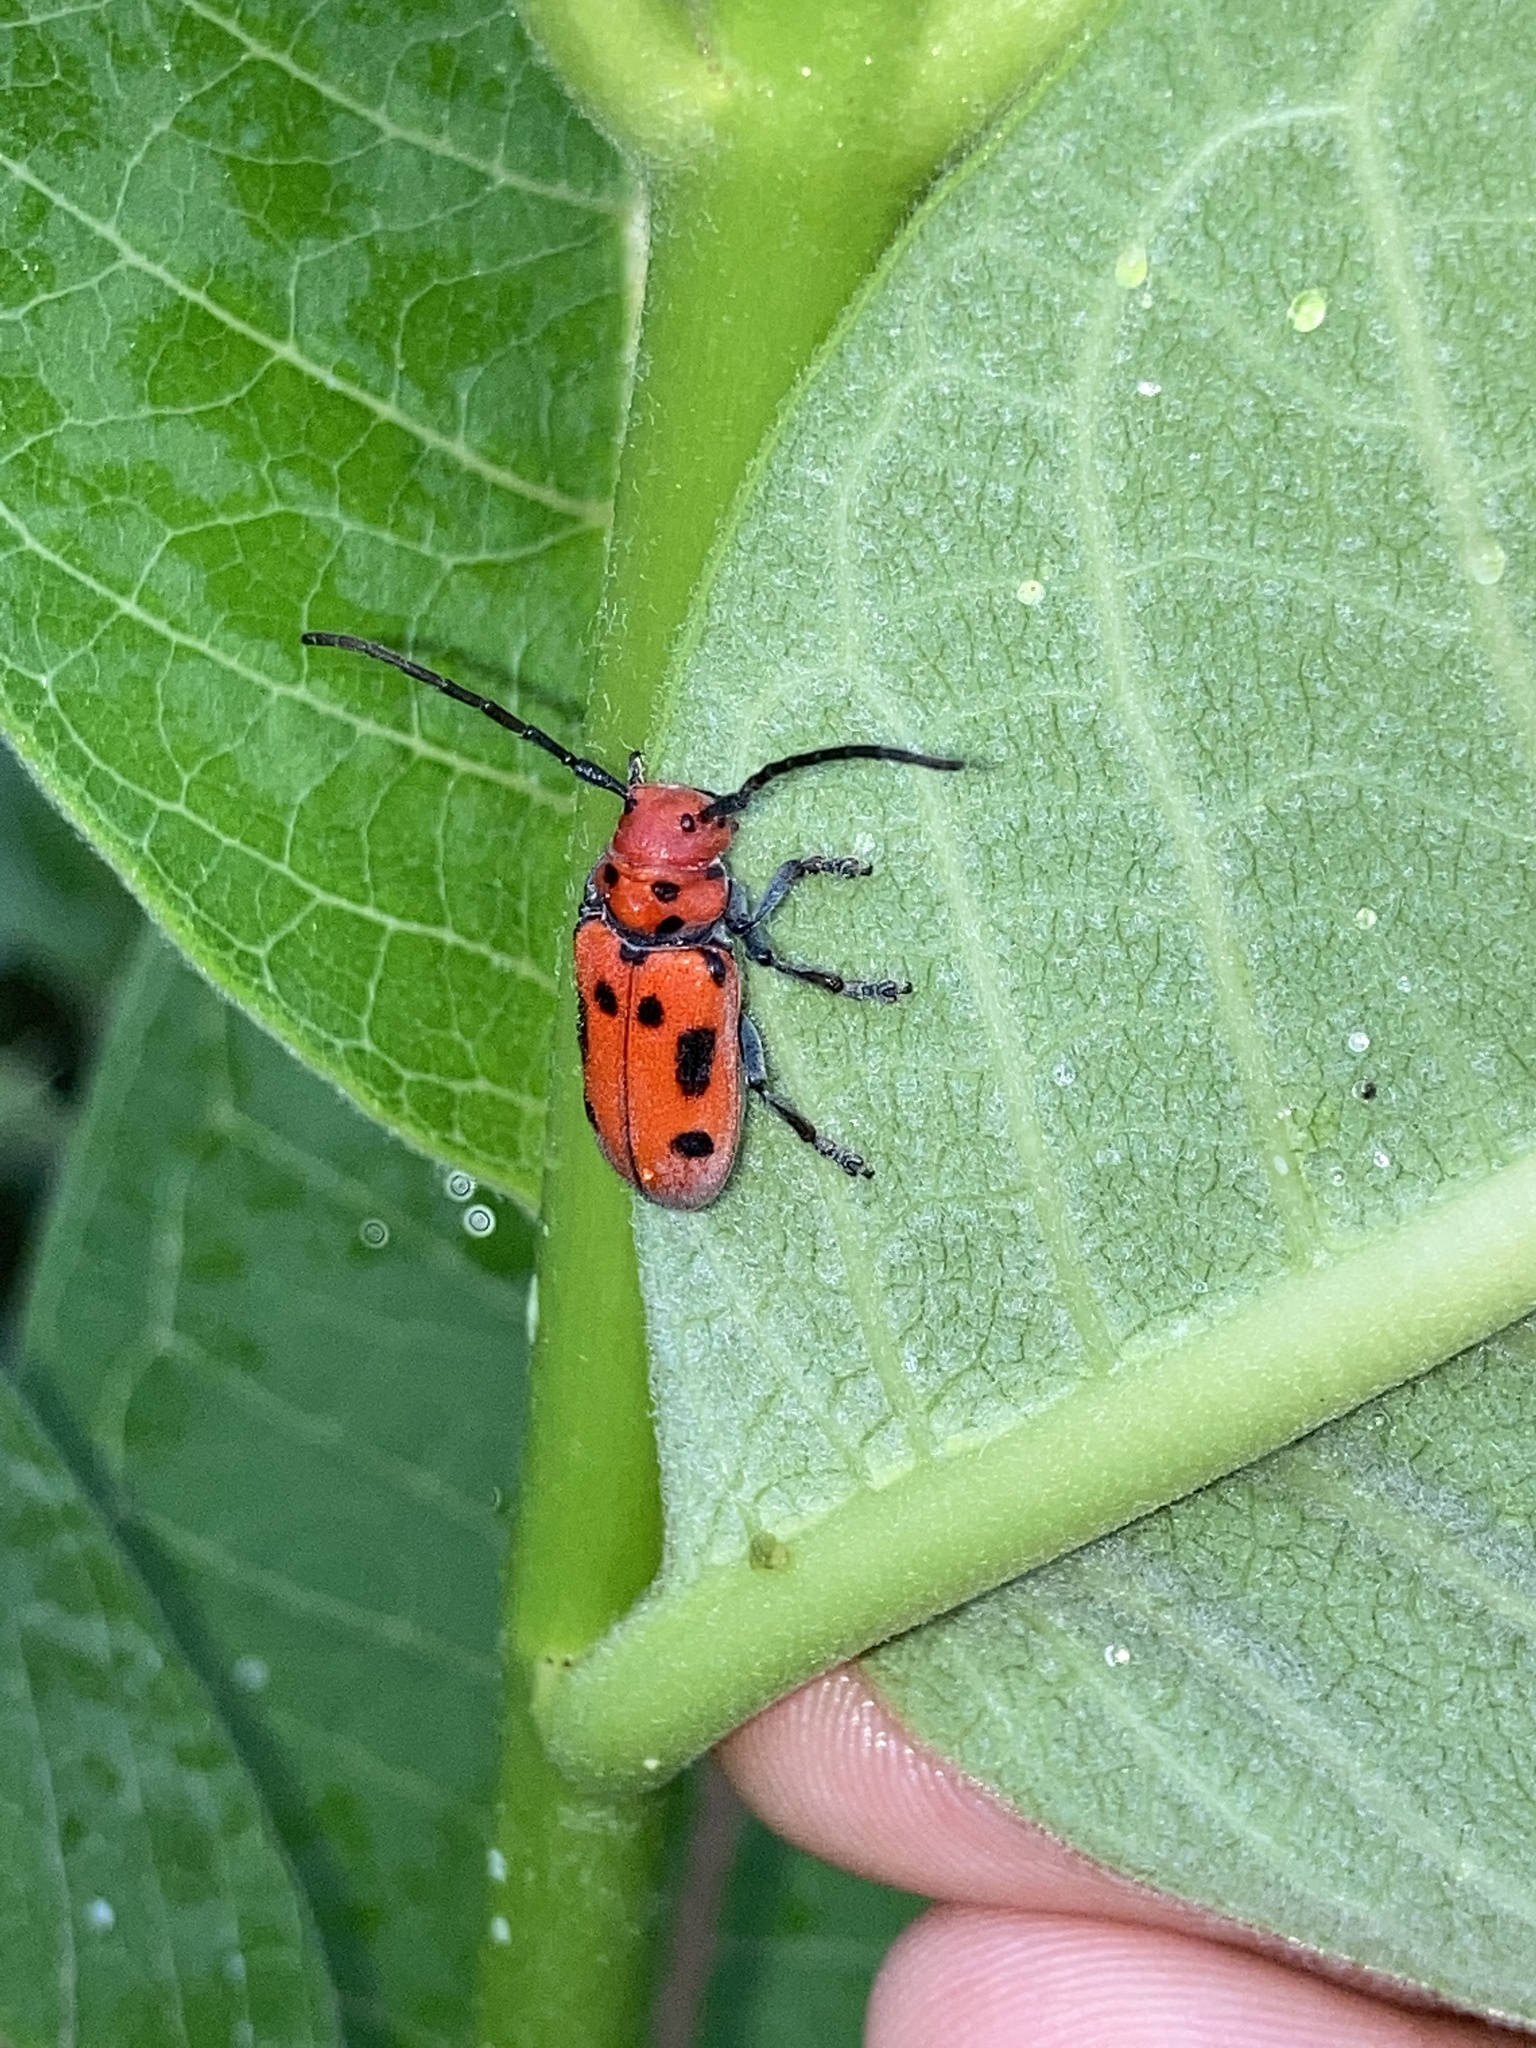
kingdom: Animalia
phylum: Arthropoda
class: Insecta
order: Coleoptera
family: Cerambycidae
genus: Tetraopes
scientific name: Tetraopes tetrophthalmus
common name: Red milkweed beetle
